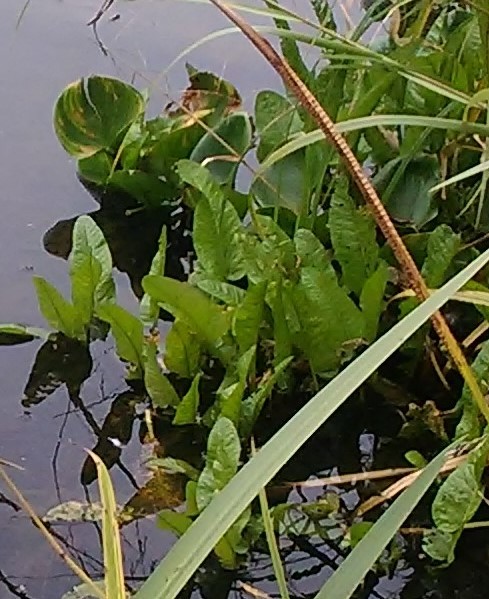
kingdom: Plantae
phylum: Tracheophyta
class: Magnoliopsida
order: Brassicales
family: Brassicaceae
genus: Rorippa
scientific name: Rorippa amphibia
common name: Great yellow-cress
